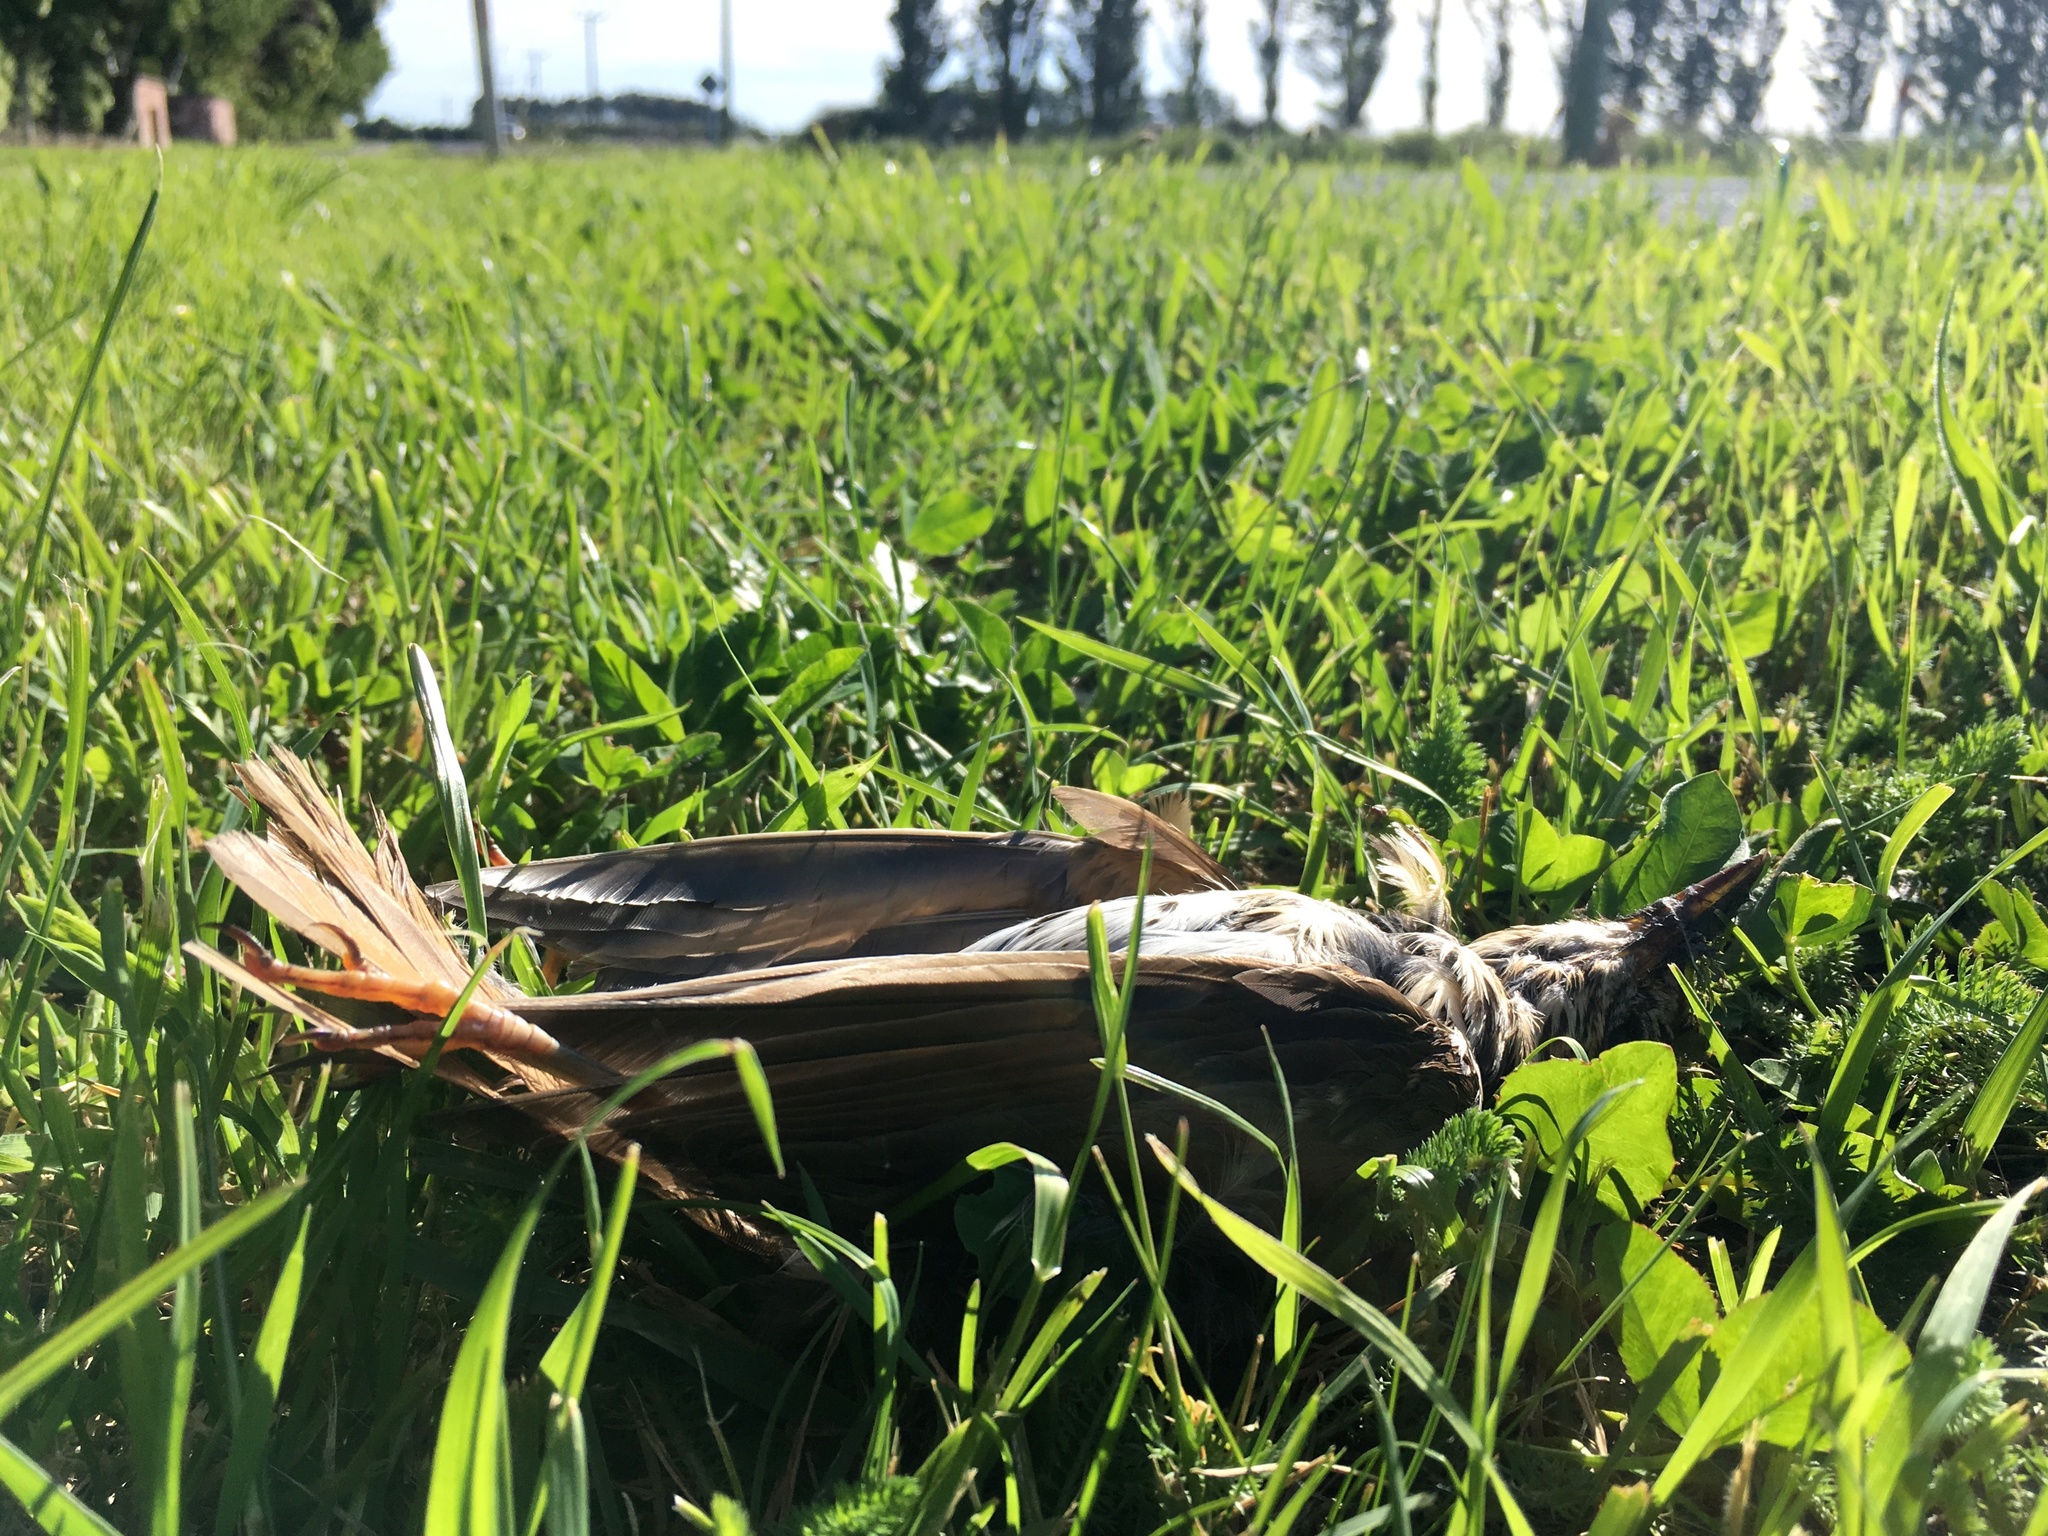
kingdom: Animalia
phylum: Chordata
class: Aves
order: Passeriformes
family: Turdidae
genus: Turdus
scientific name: Turdus philomelos
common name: Song thrush
